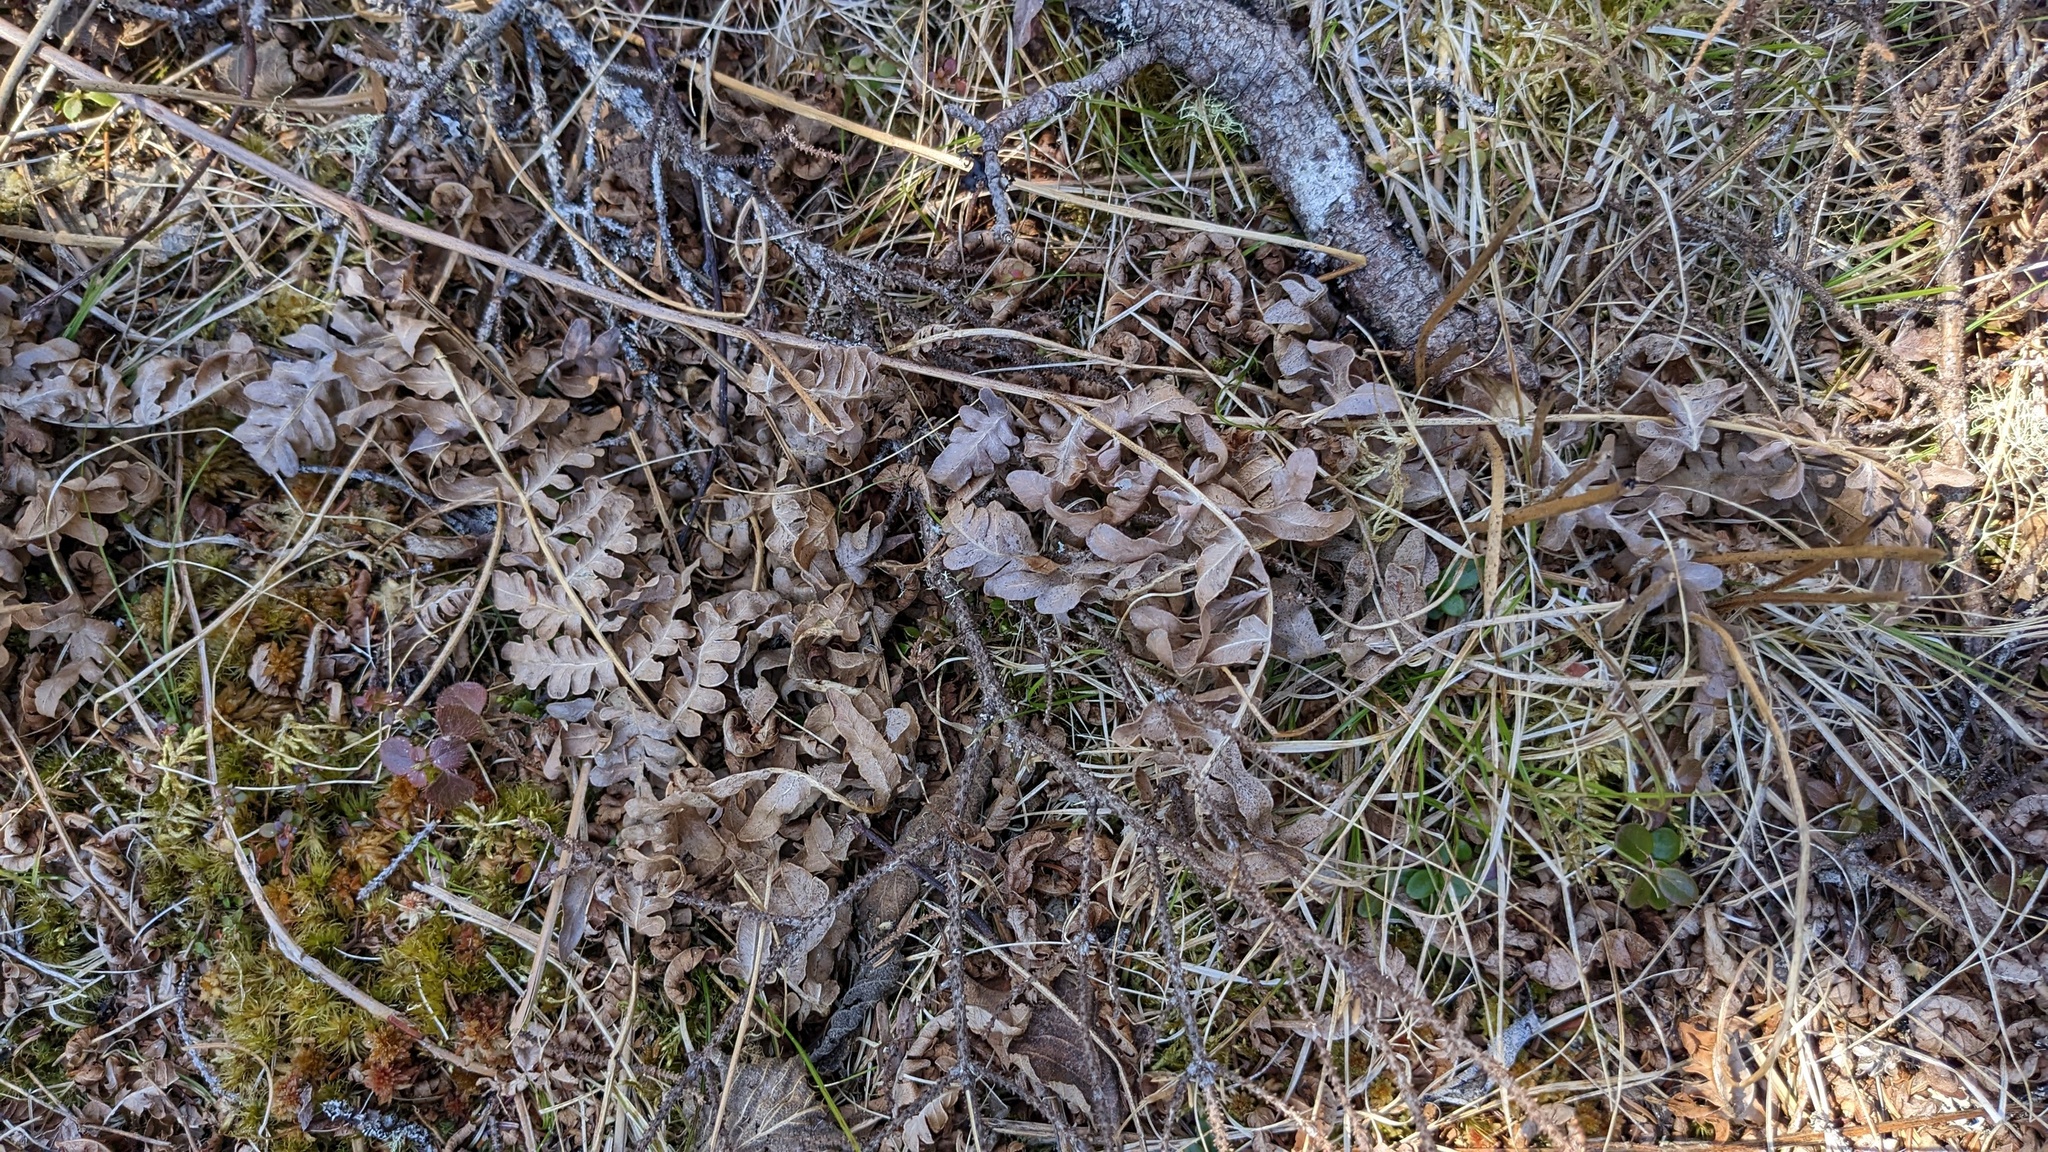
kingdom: Plantae
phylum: Tracheophyta
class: Polypodiopsida
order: Polypodiales
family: Dennstaedtiaceae
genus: Pteridium
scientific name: Pteridium aquilinum
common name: Bracken
